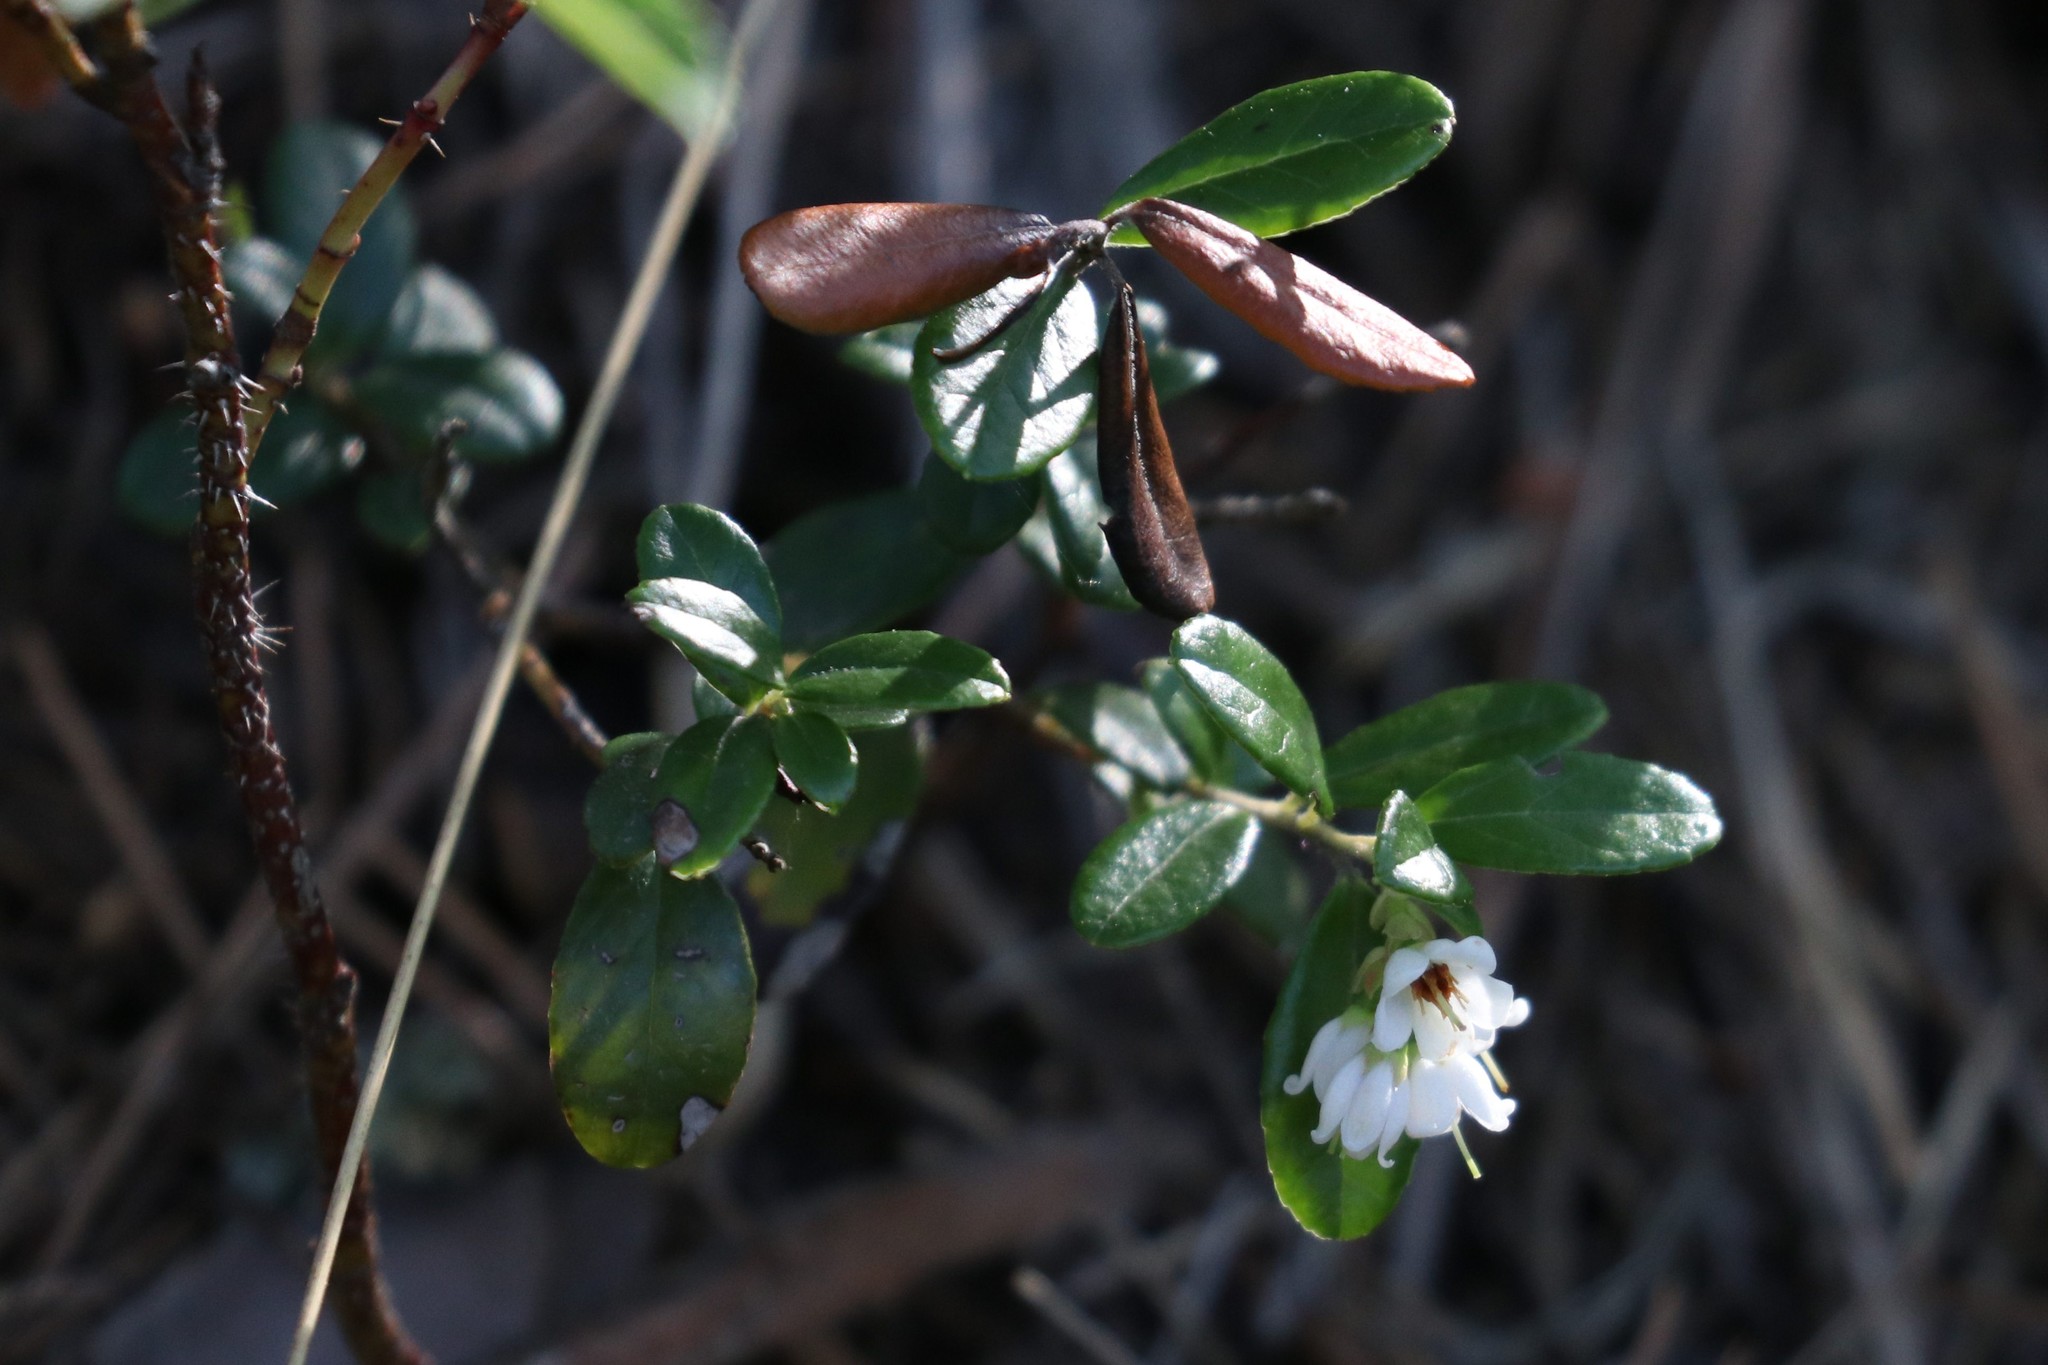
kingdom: Plantae
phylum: Tracheophyta
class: Magnoliopsida
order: Ericales
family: Ericaceae
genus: Vaccinium
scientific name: Vaccinium vitis-idaea
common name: Cowberry
